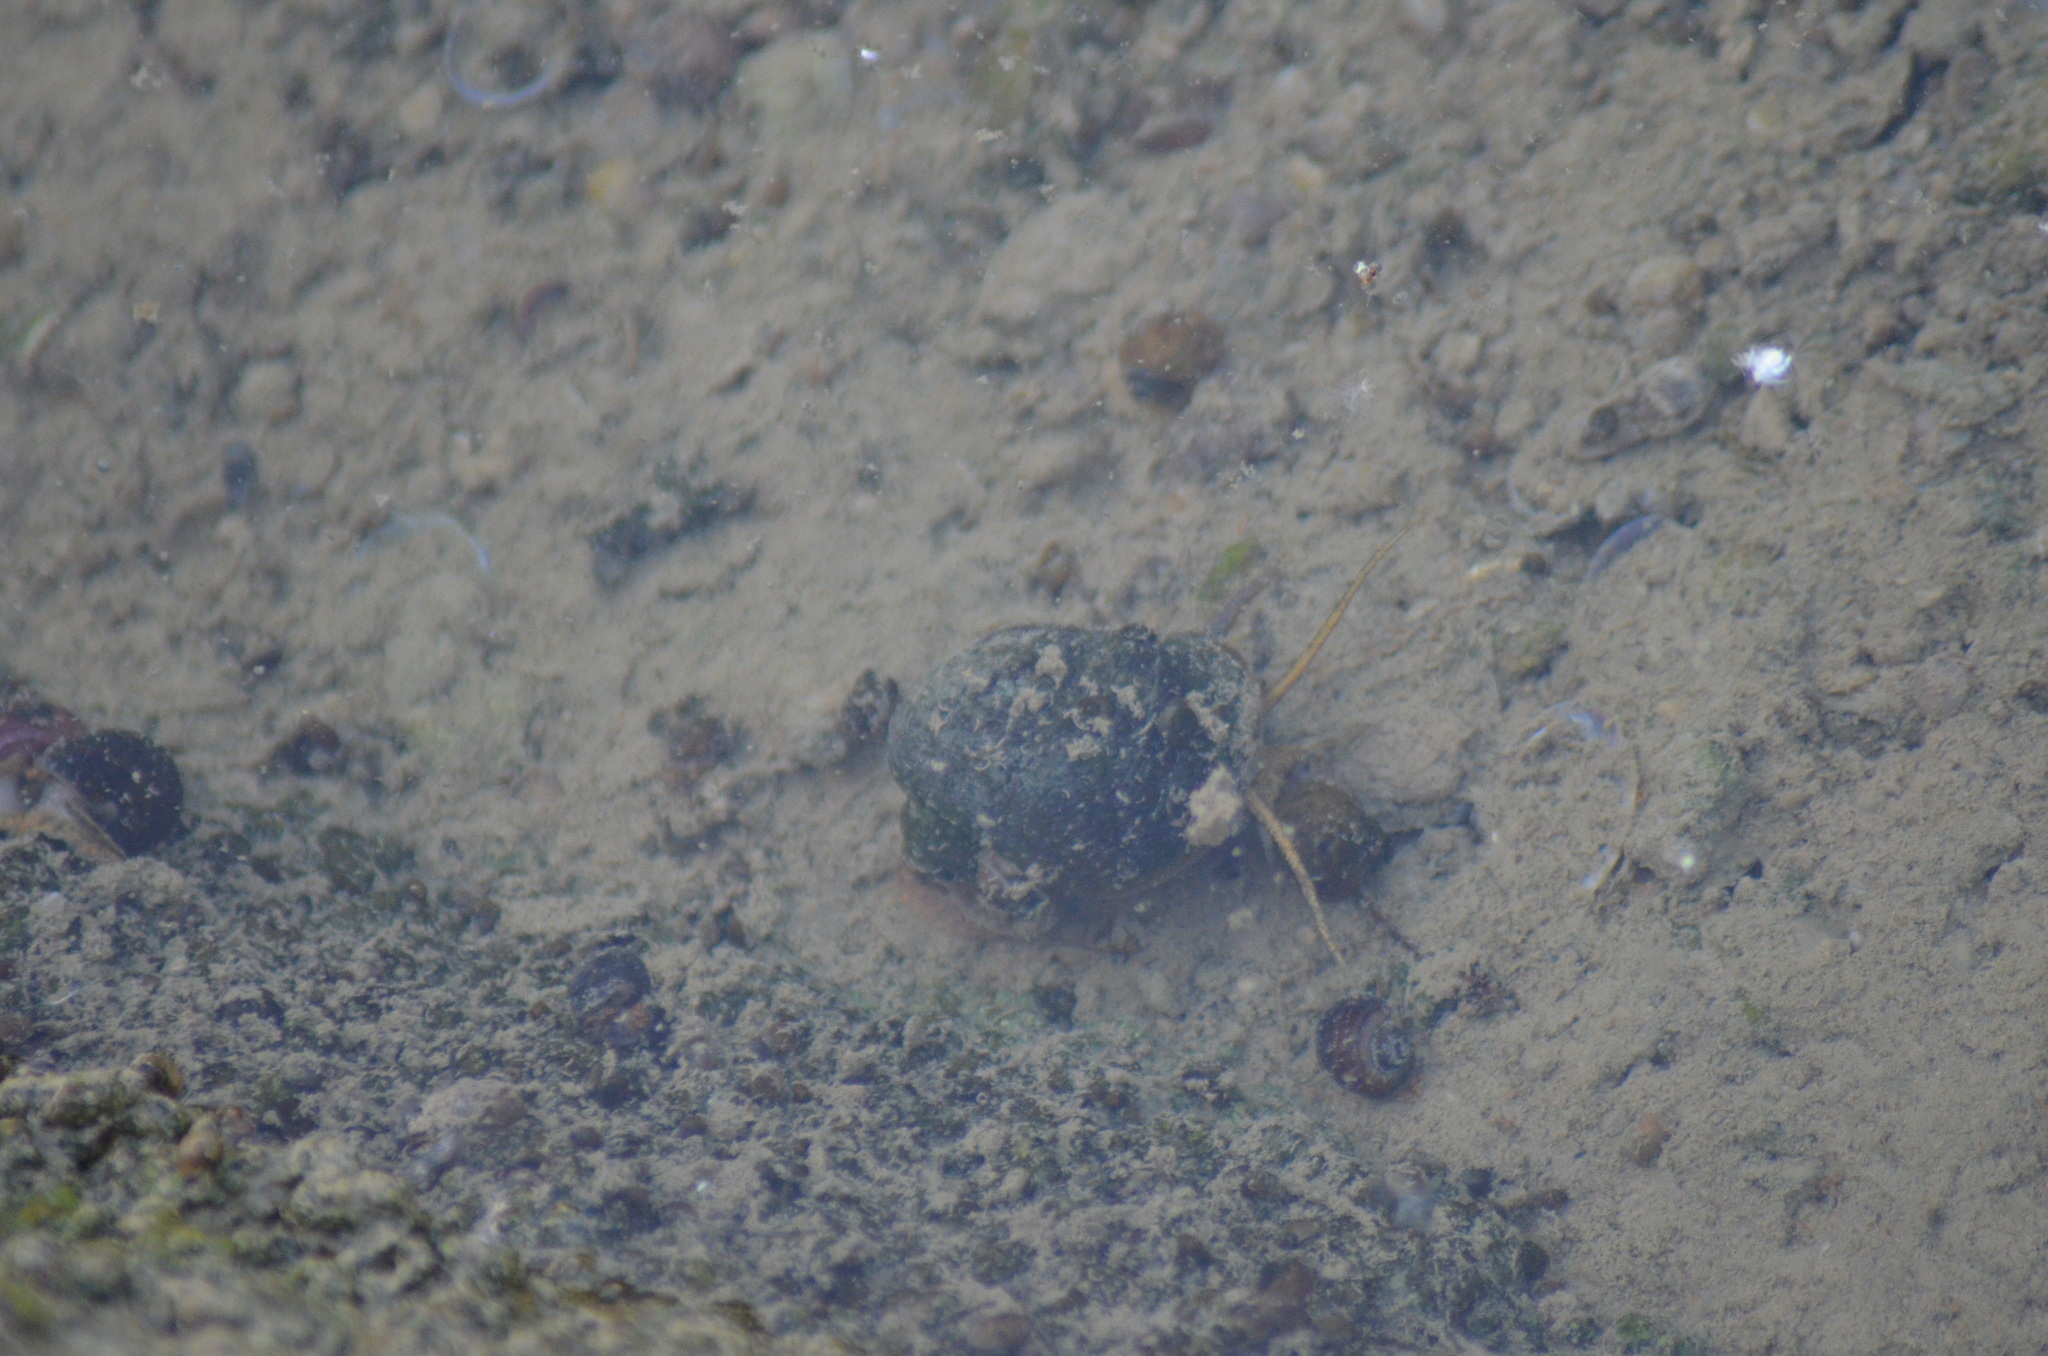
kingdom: Animalia
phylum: Mollusca
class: Gastropoda
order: Architaenioglossa
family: Ampullariidae
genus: Pomacea
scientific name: Pomacea maculata
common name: Giant applesnail
